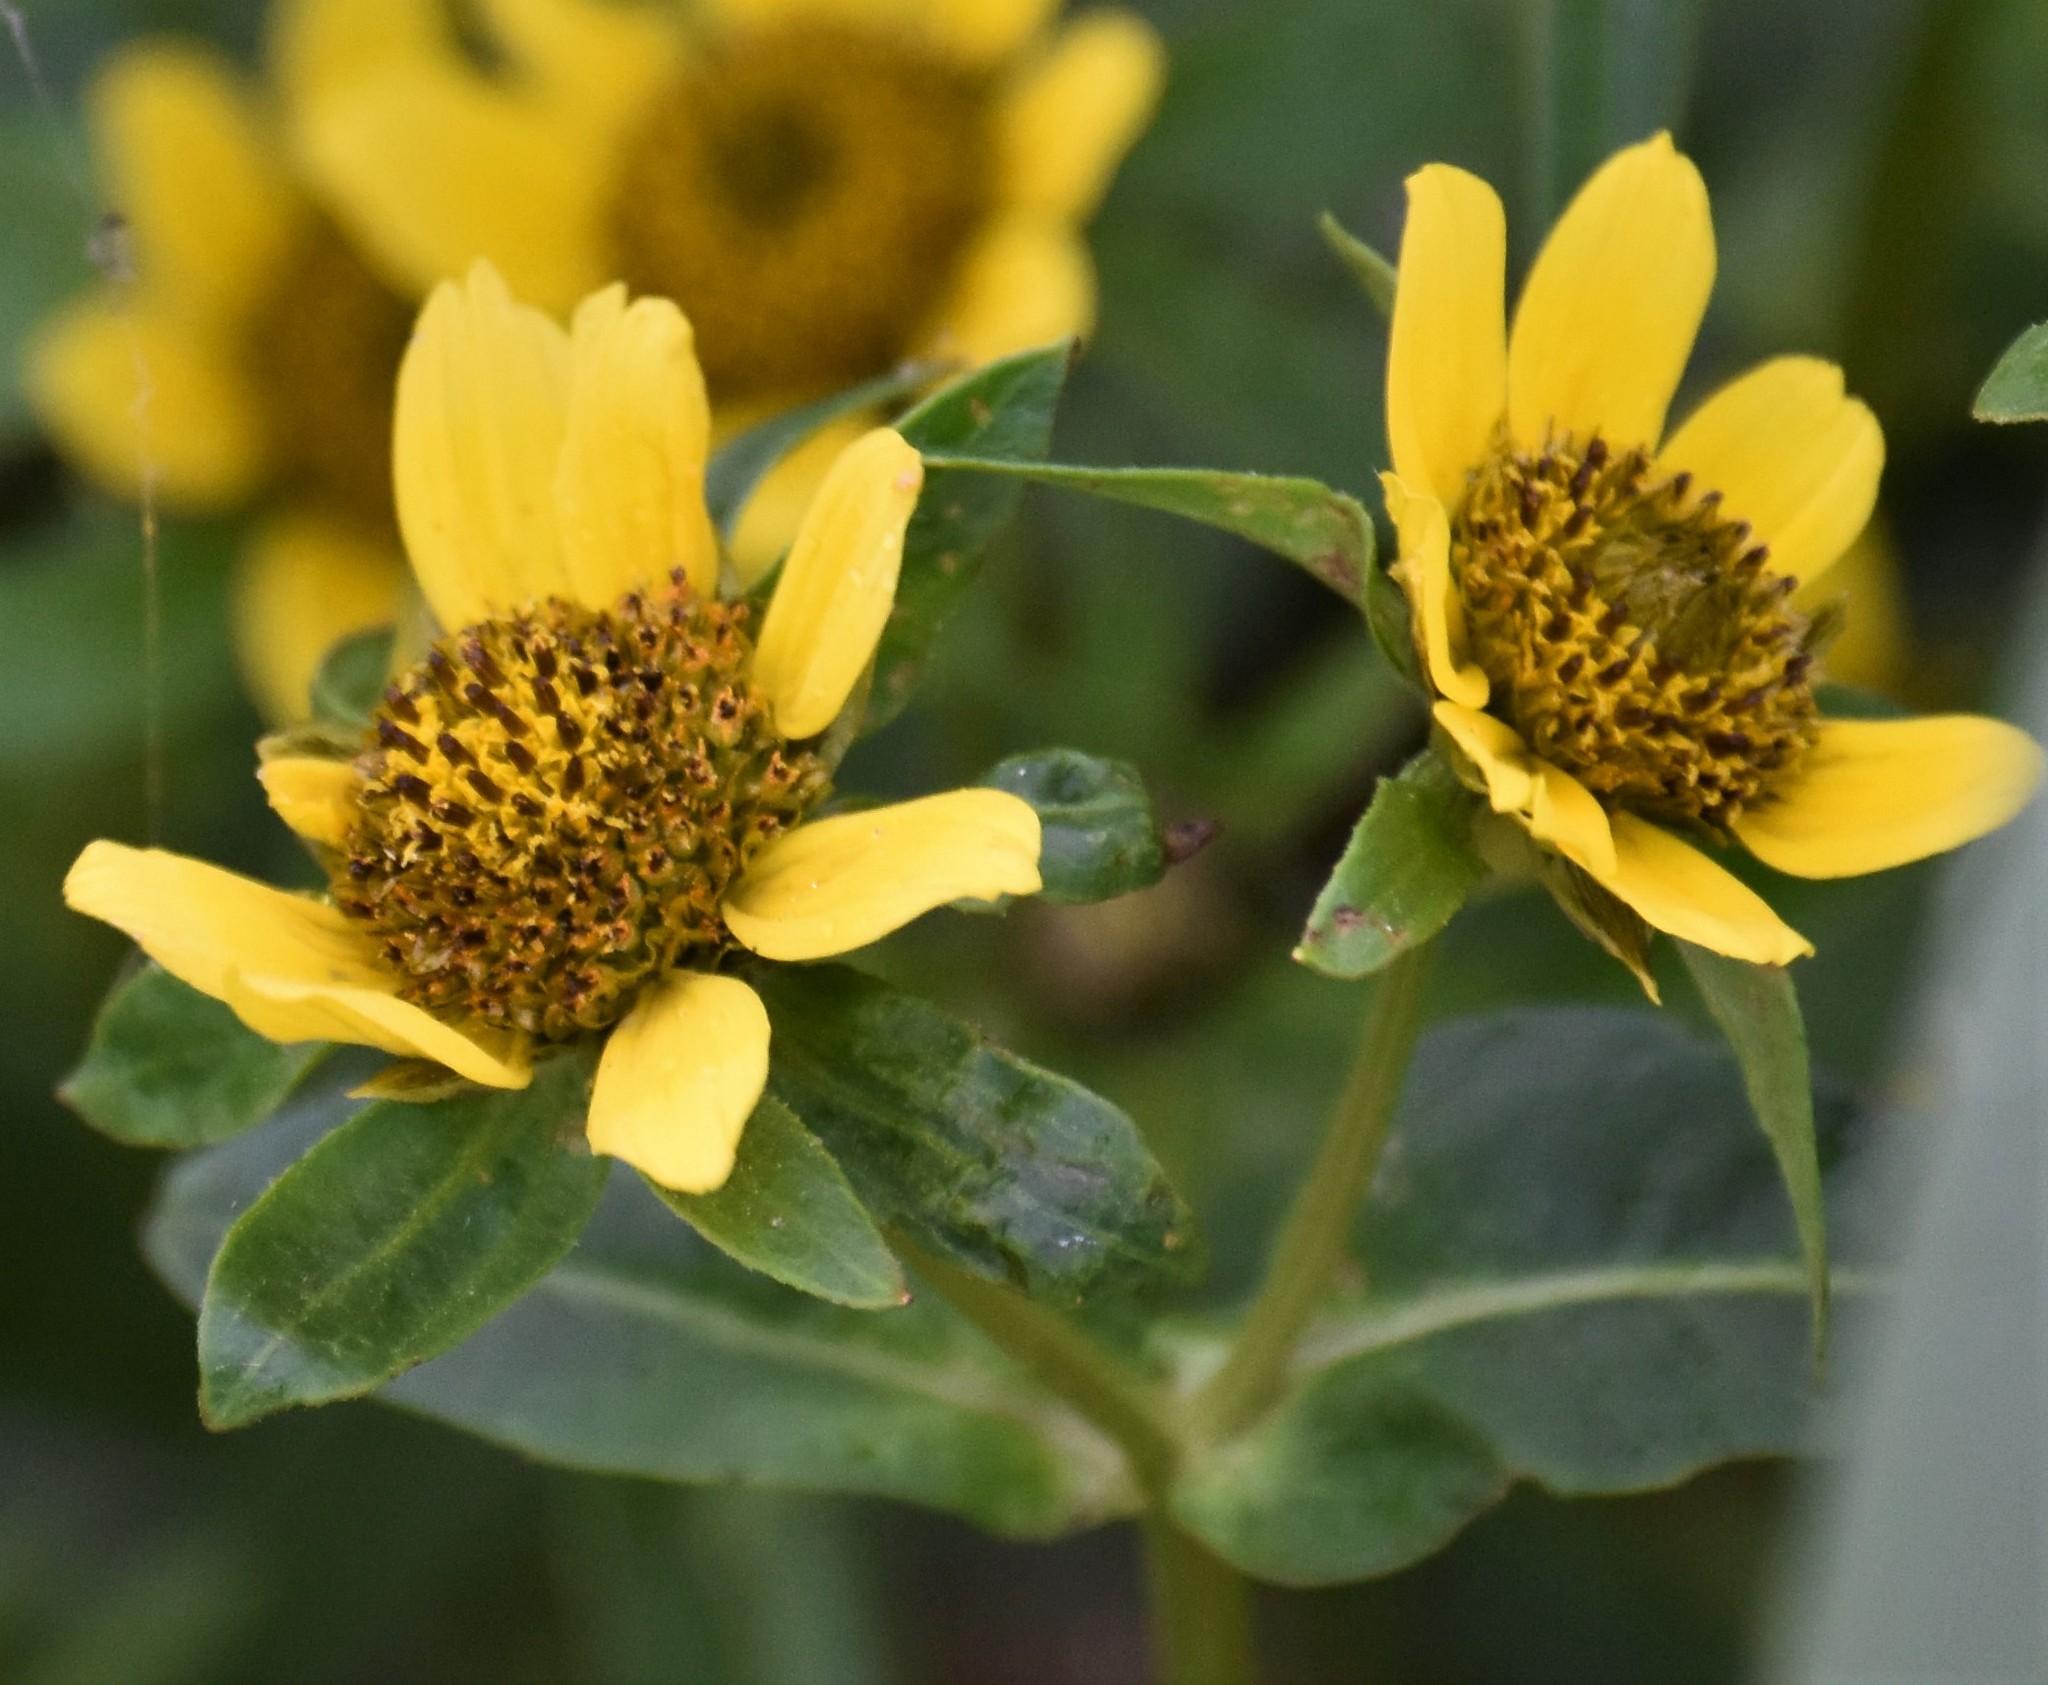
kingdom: Plantae
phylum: Tracheophyta
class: Magnoliopsida
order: Asterales
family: Asteraceae
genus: Bidens
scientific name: Bidens cernua
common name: Nodding bur-marigold
